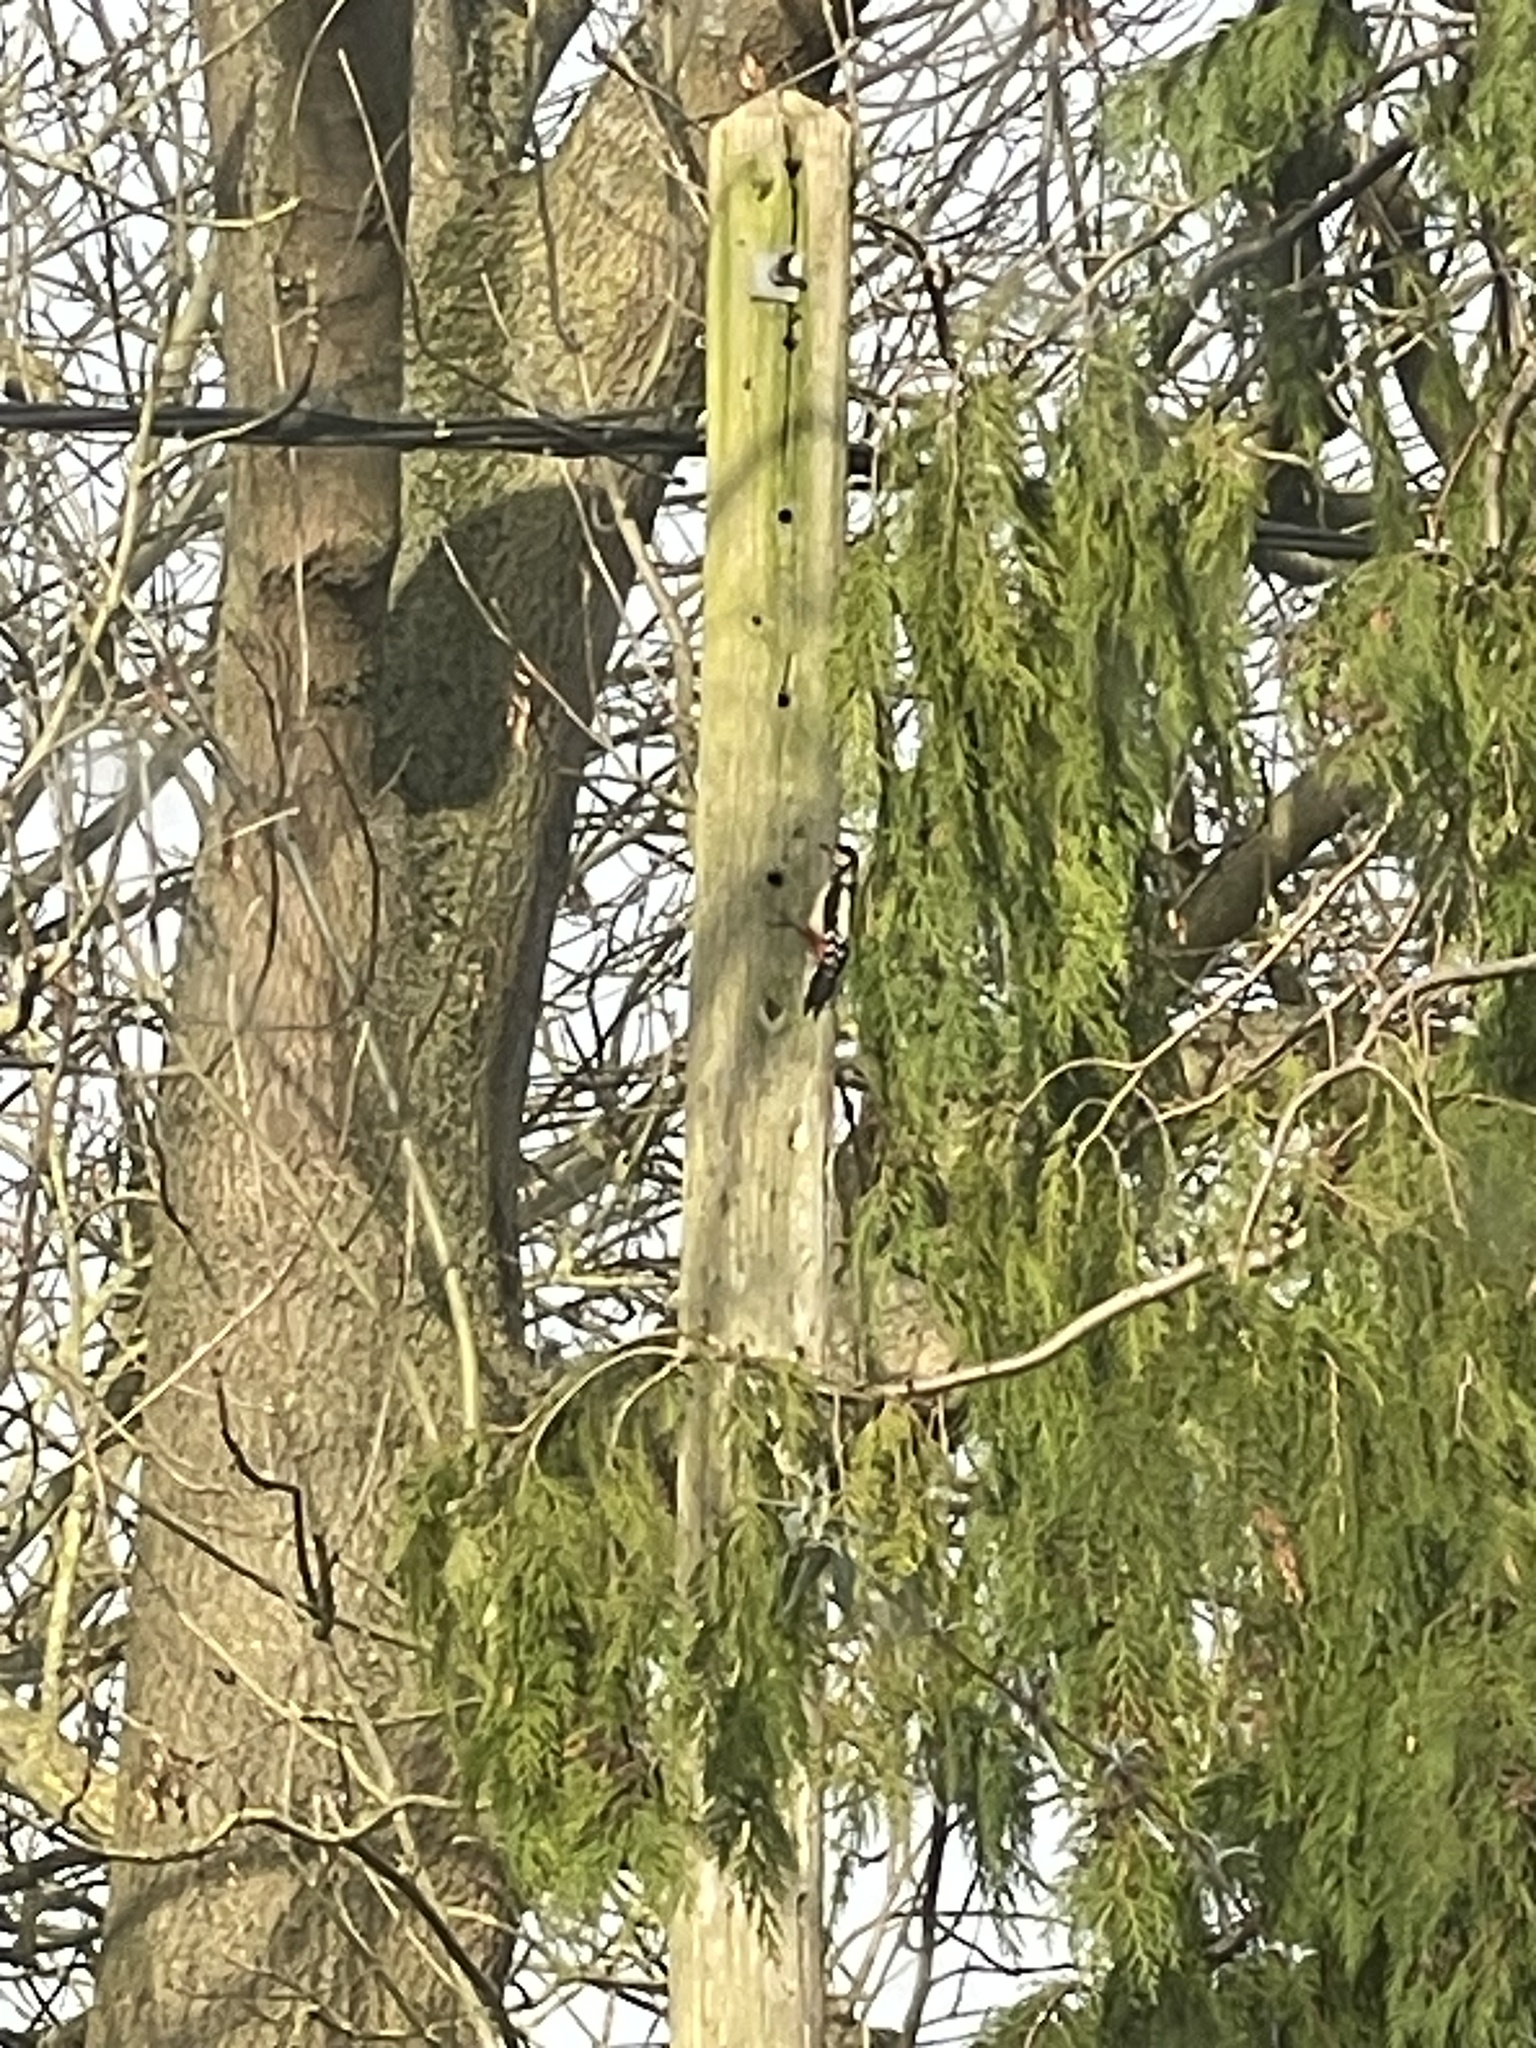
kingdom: Animalia
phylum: Chordata
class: Aves
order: Piciformes
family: Picidae
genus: Dendrocopos
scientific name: Dendrocopos major
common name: Great spotted woodpecker
